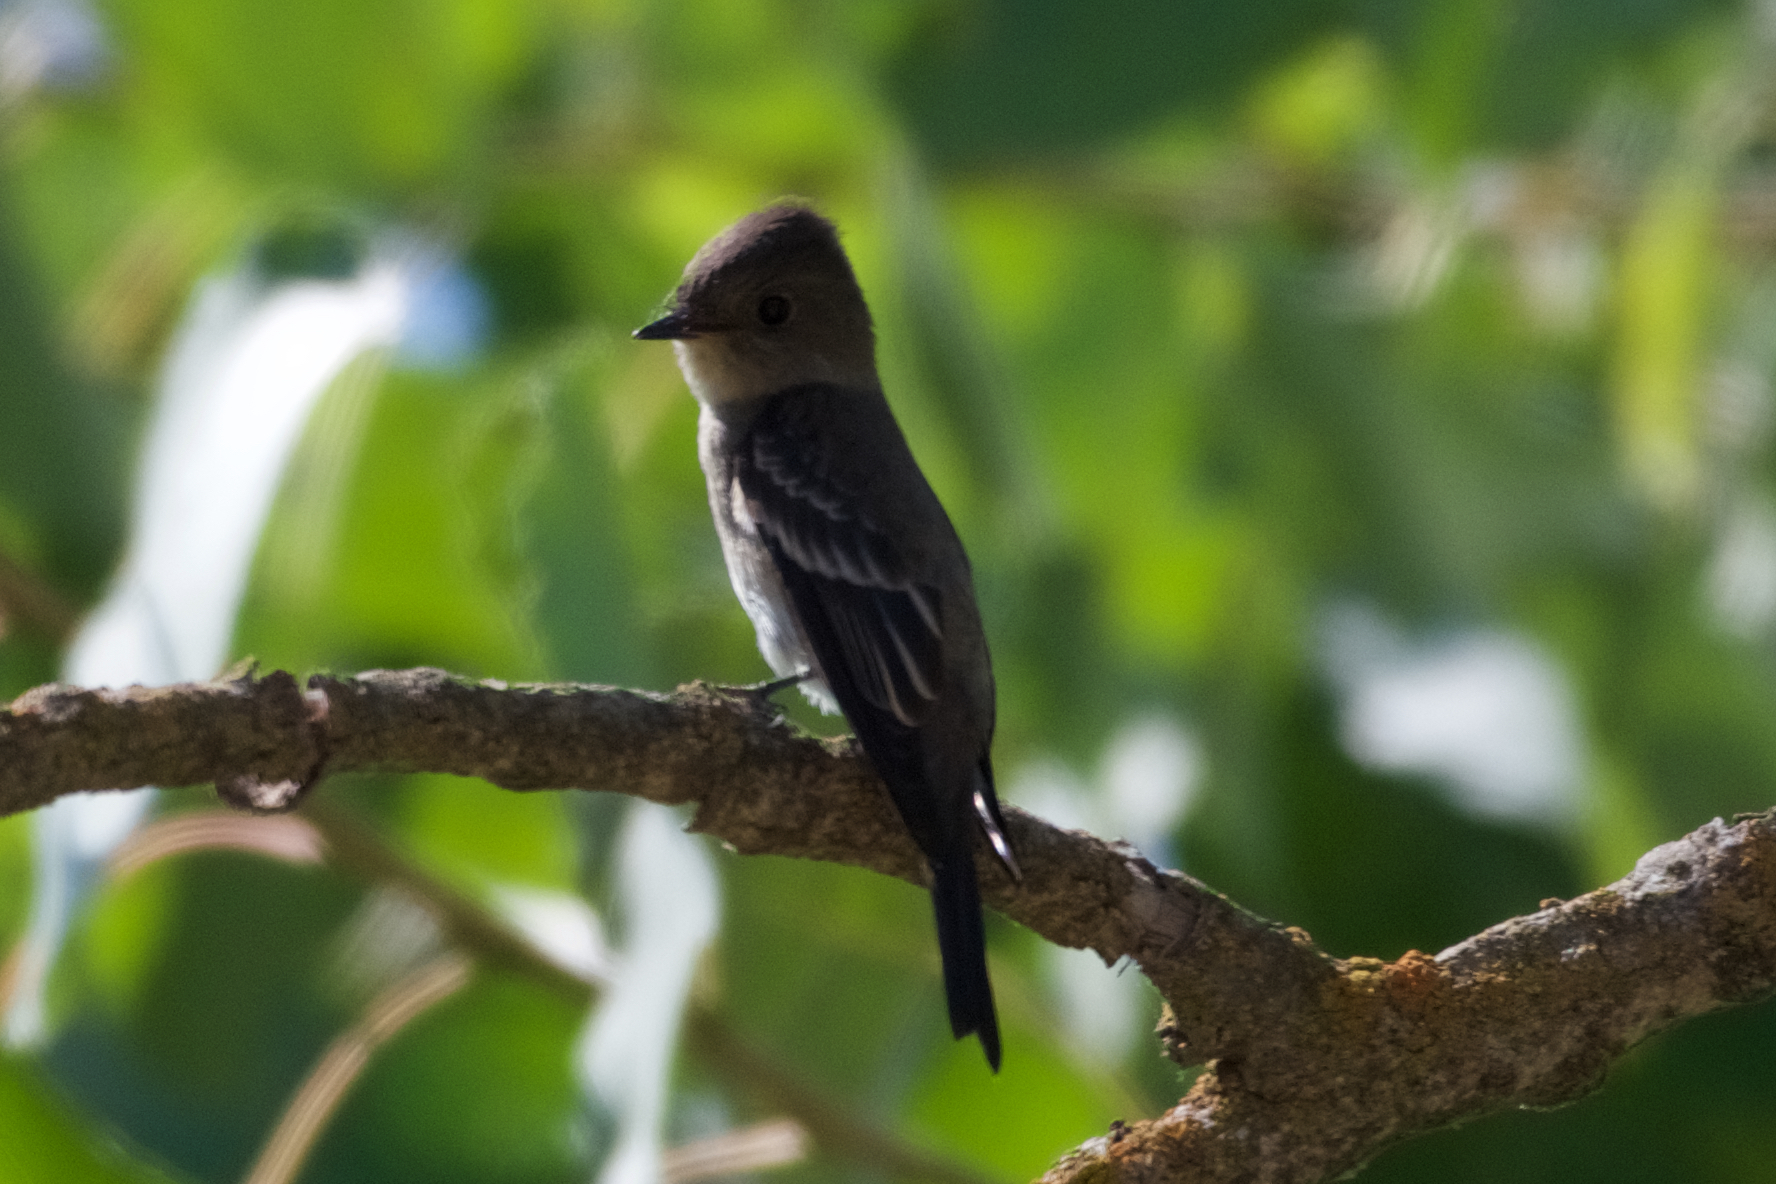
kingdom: Animalia
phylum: Chordata
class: Aves
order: Passeriformes
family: Tyrannidae
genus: Contopus
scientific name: Contopus sordidulus
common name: Western wood-pewee
